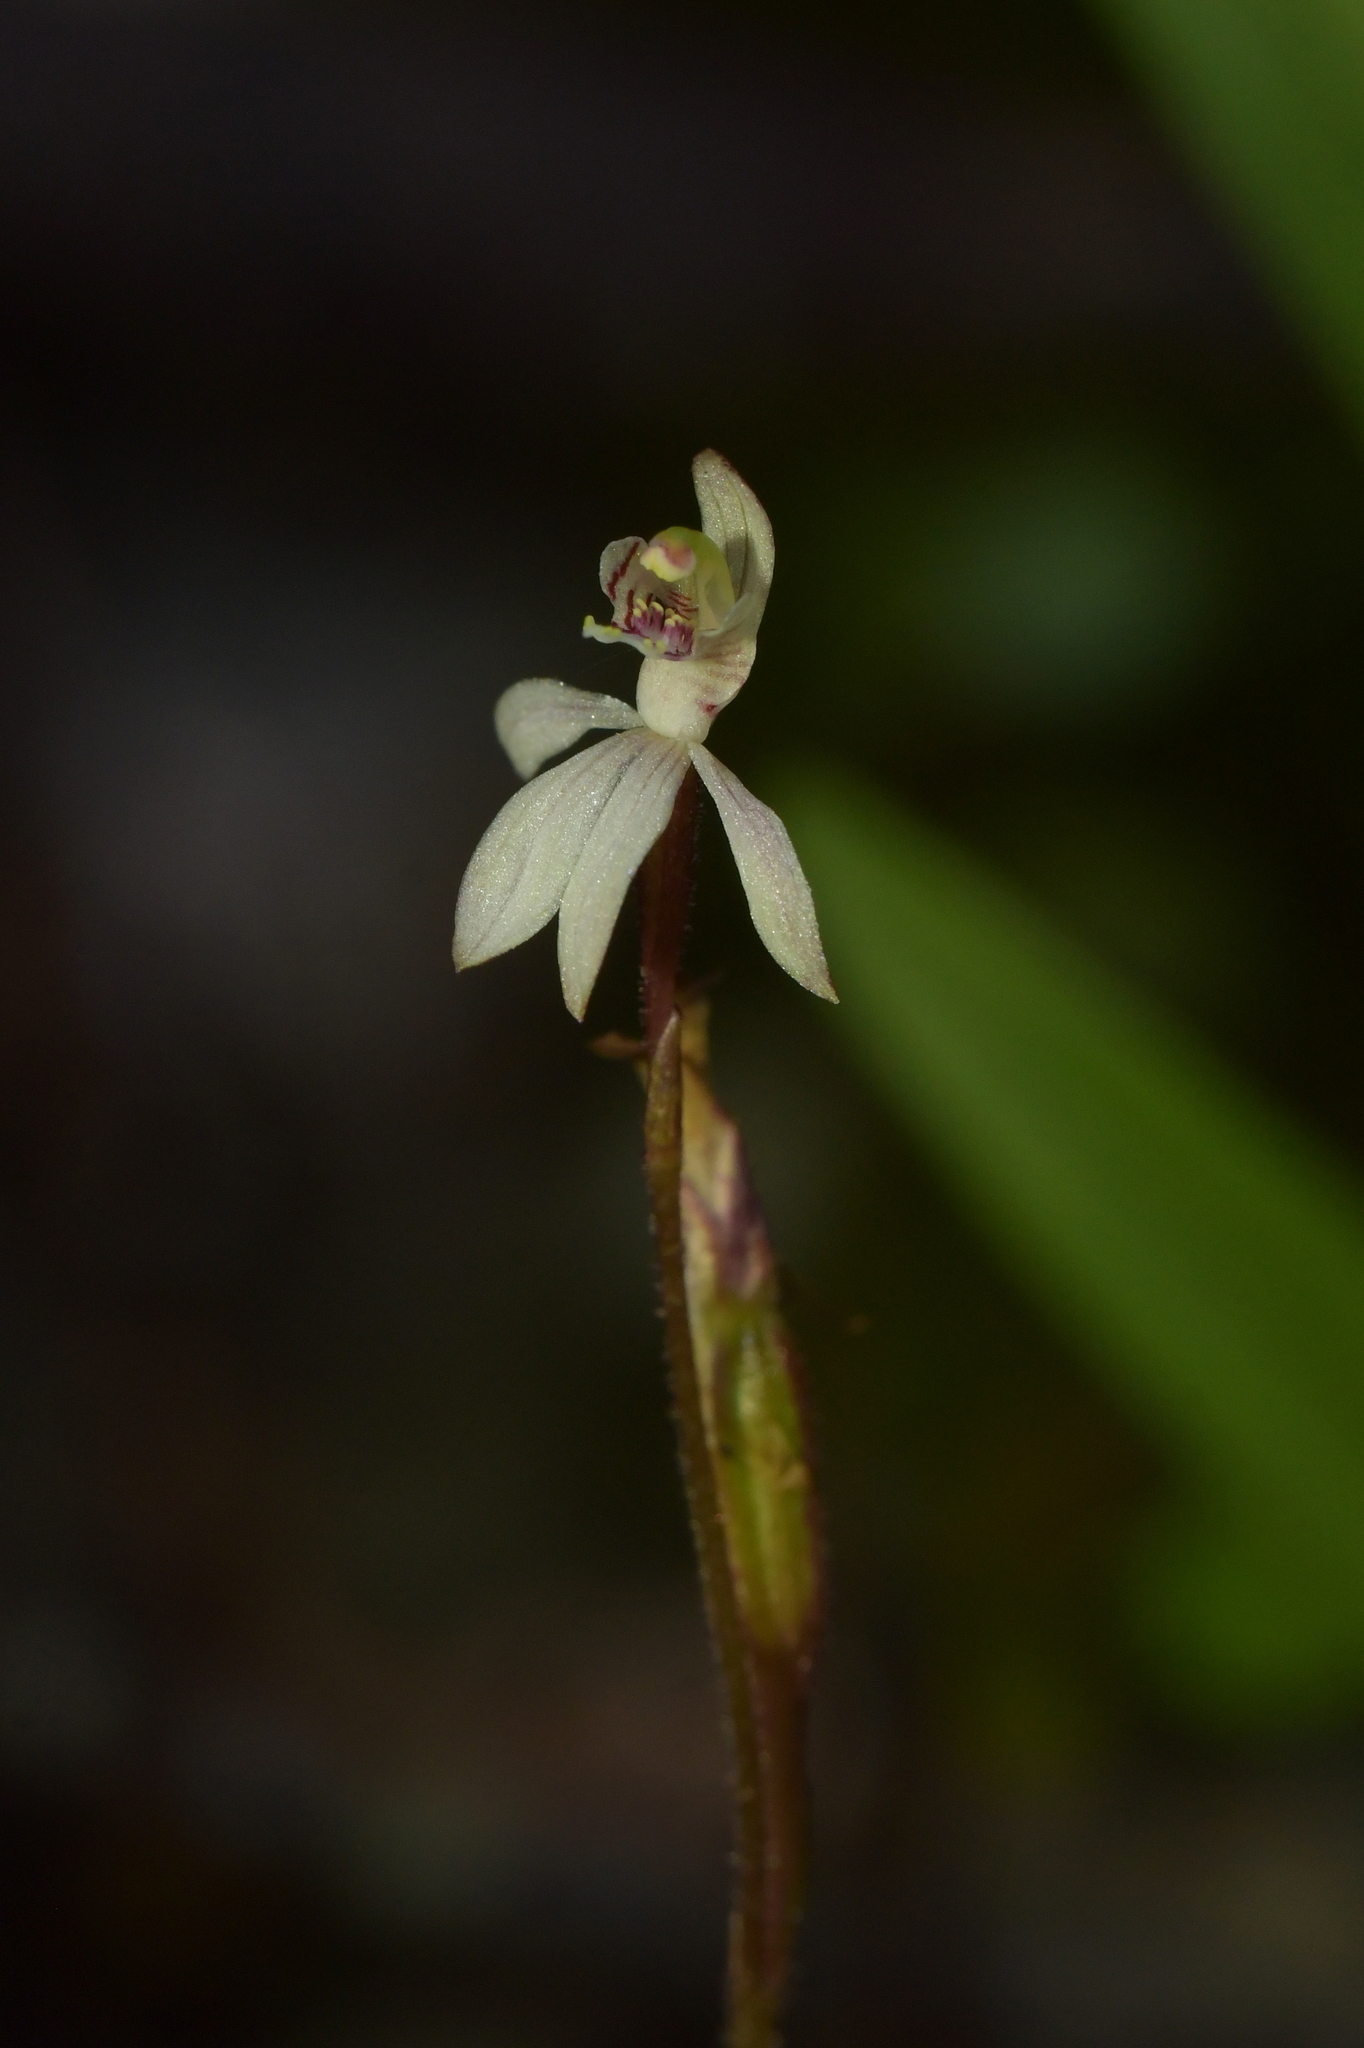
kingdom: Plantae
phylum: Tracheophyta
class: Liliopsida
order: Asparagales
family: Orchidaceae
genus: Caladenia
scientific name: Caladenia chlorostyla
